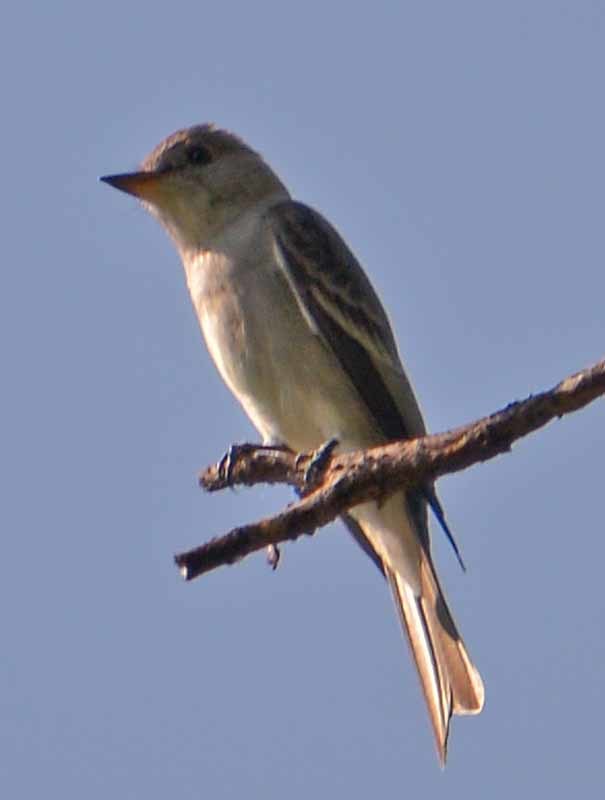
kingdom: Animalia
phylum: Chordata
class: Aves
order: Passeriformes
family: Tyrannidae
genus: Contopus
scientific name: Contopus sordidulus
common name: Western wood-pewee
